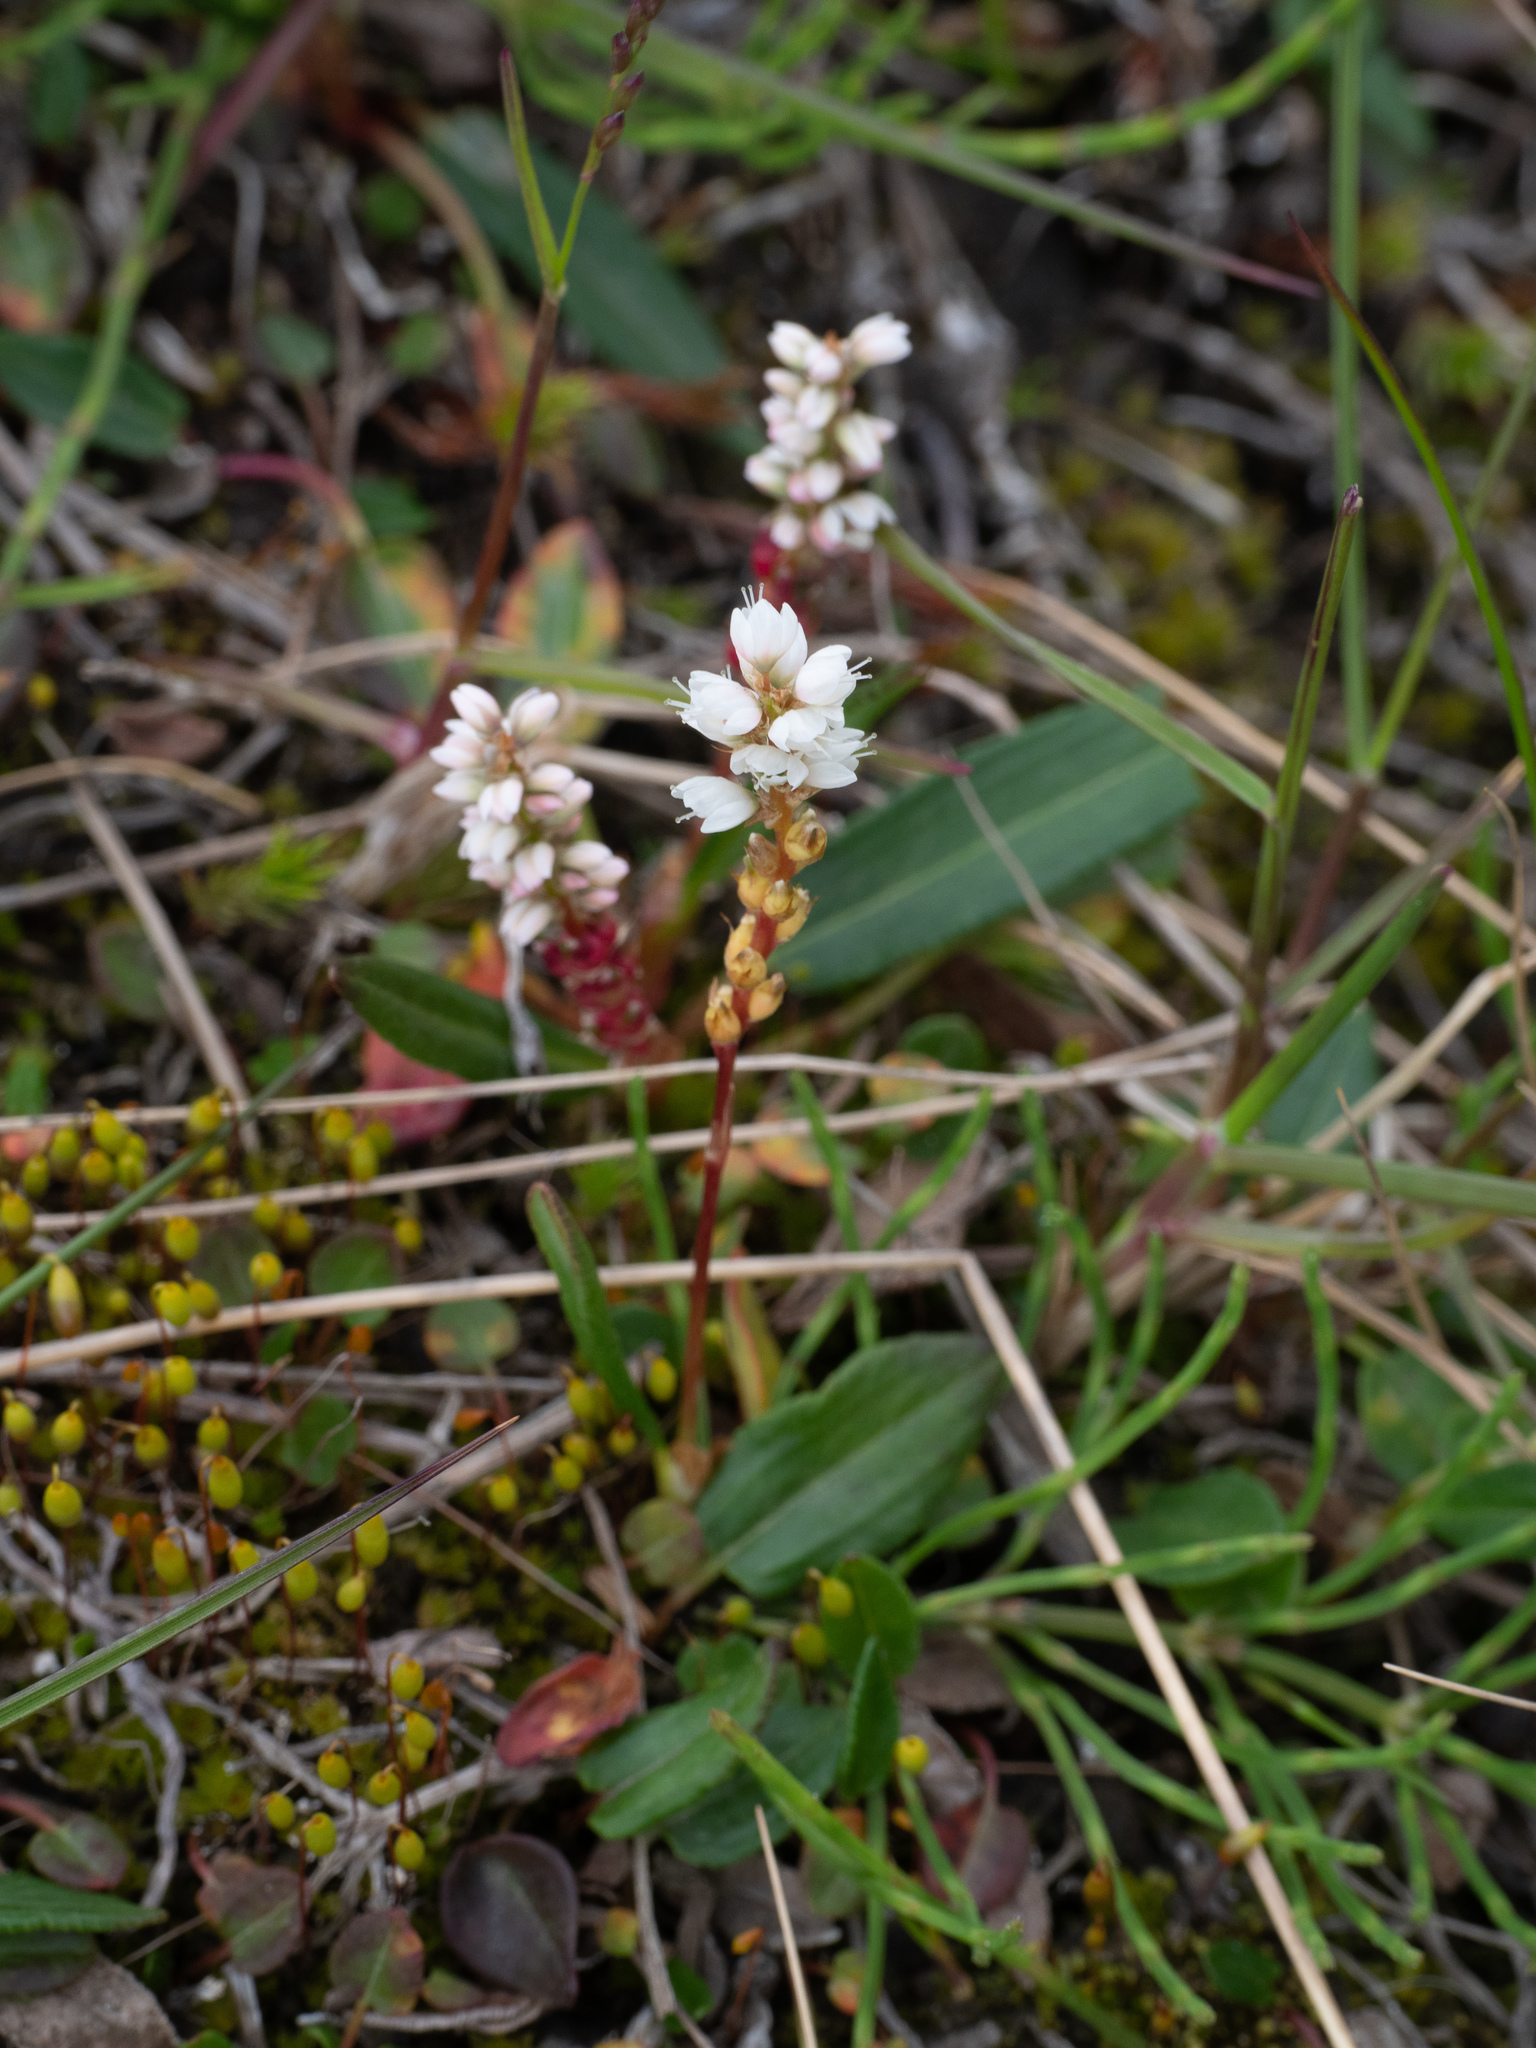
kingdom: Plantae
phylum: Tracheophyta
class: Magnoliopsida
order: Caryophyllales
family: Polygonaceae
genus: Bistorta
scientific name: Bistorta vivipara
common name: Alpine bistort
